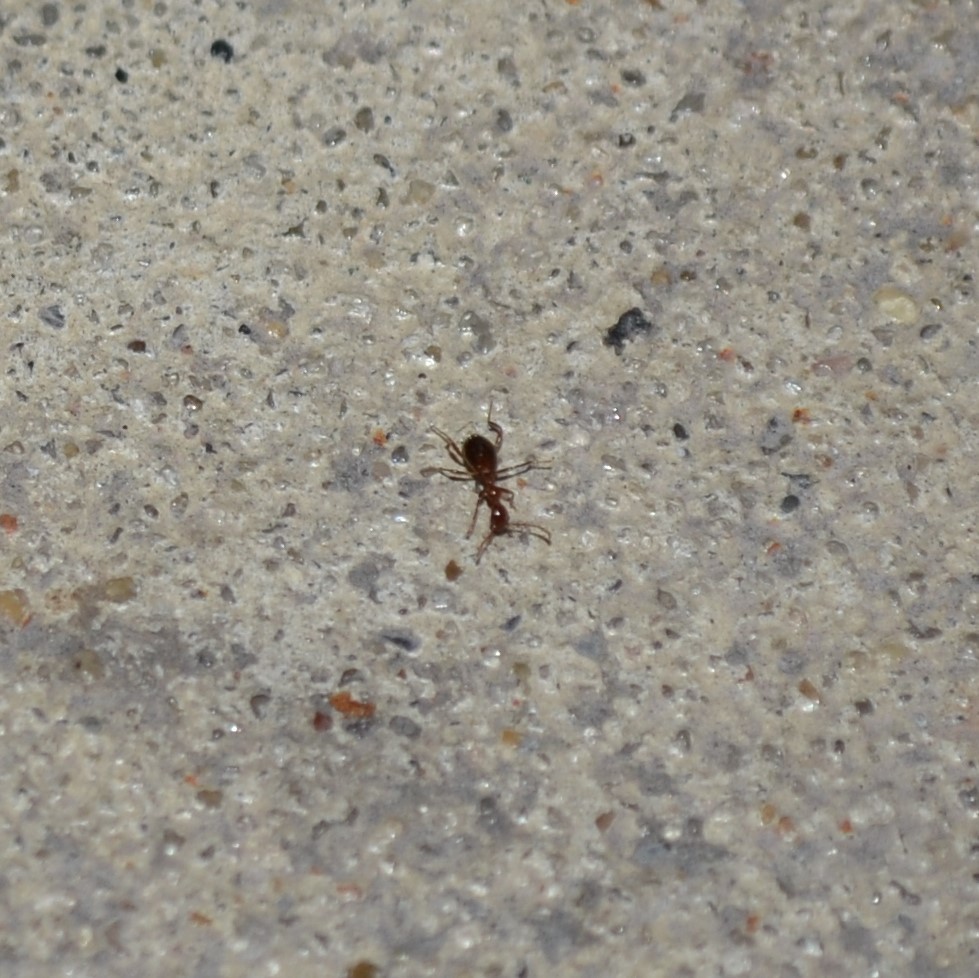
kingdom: Animalia
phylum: Arthropoda
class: Insecta
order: Coleoptera
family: Anthicidae
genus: Acanthinus
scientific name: Acanthinus
